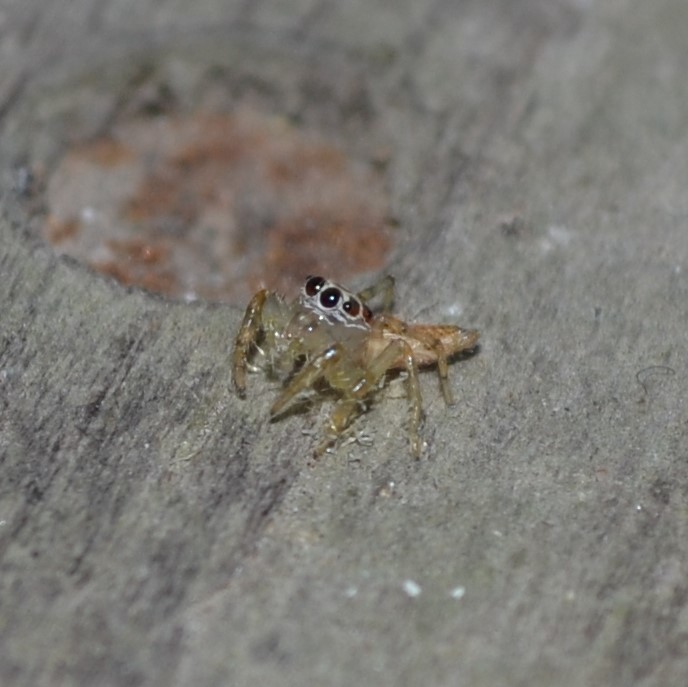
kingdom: Animalia
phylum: Arthropoda
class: Arachnida
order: Araneae
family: Salticidae
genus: Colonus
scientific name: Colonus sylvanus
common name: Jumping spiders
